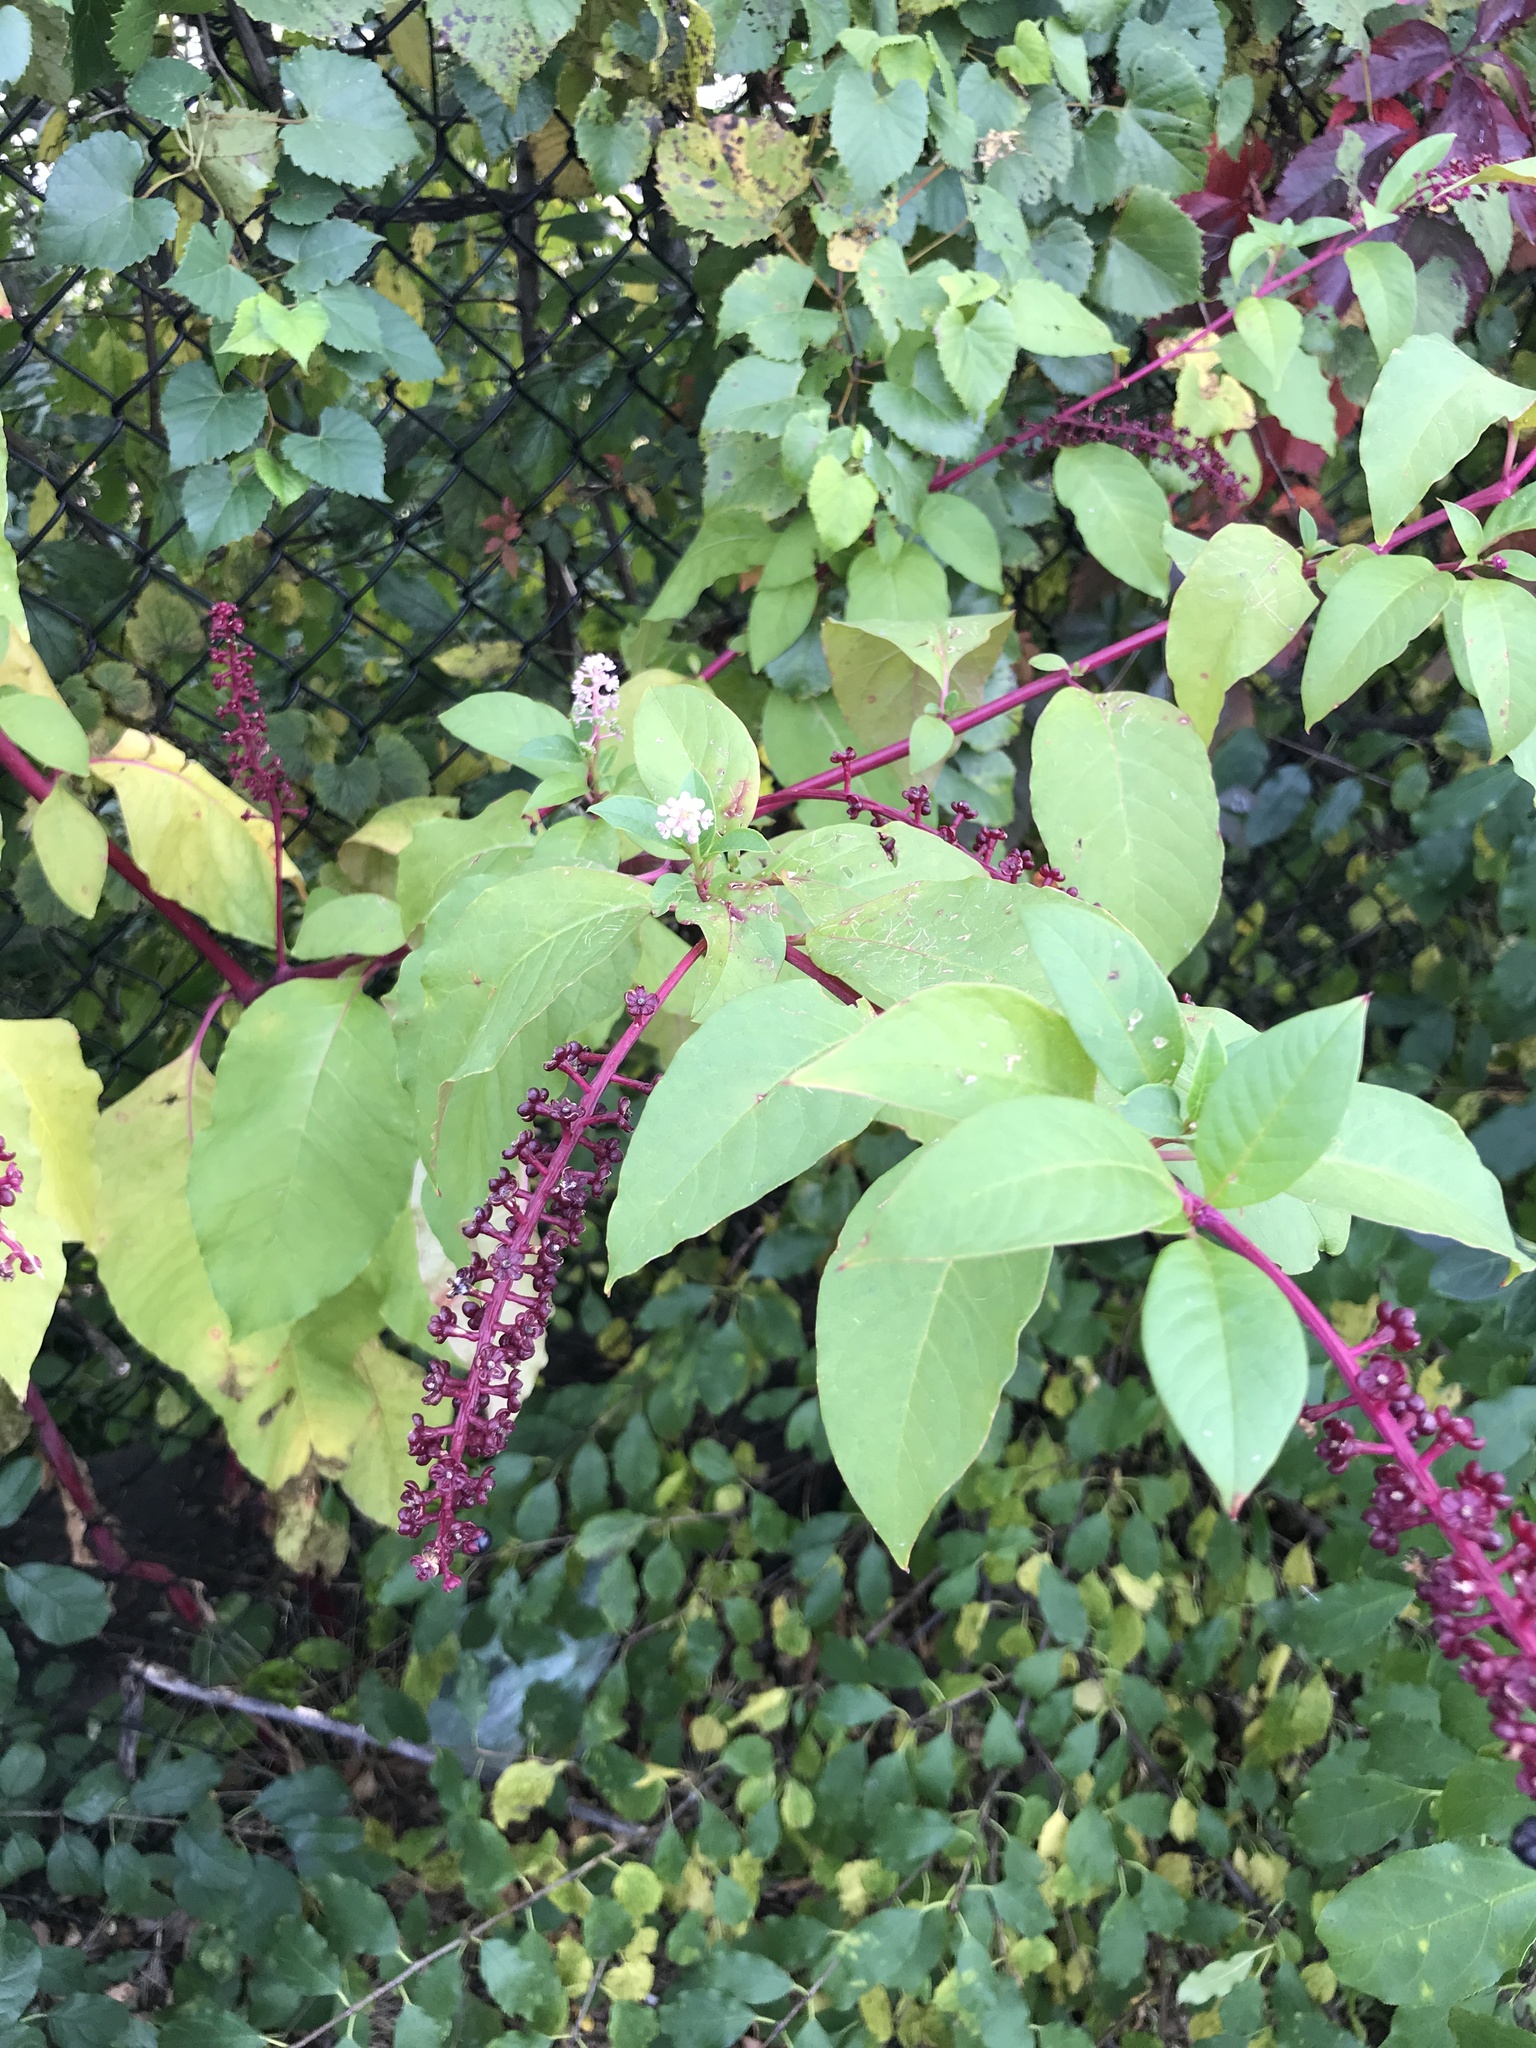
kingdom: Plantae
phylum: Tracheophyta
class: Magnoliopsida
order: Caryophyllales
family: Phytolaccaceae
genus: Phytolacca
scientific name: Phytolacca americana
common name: American pokeweed
